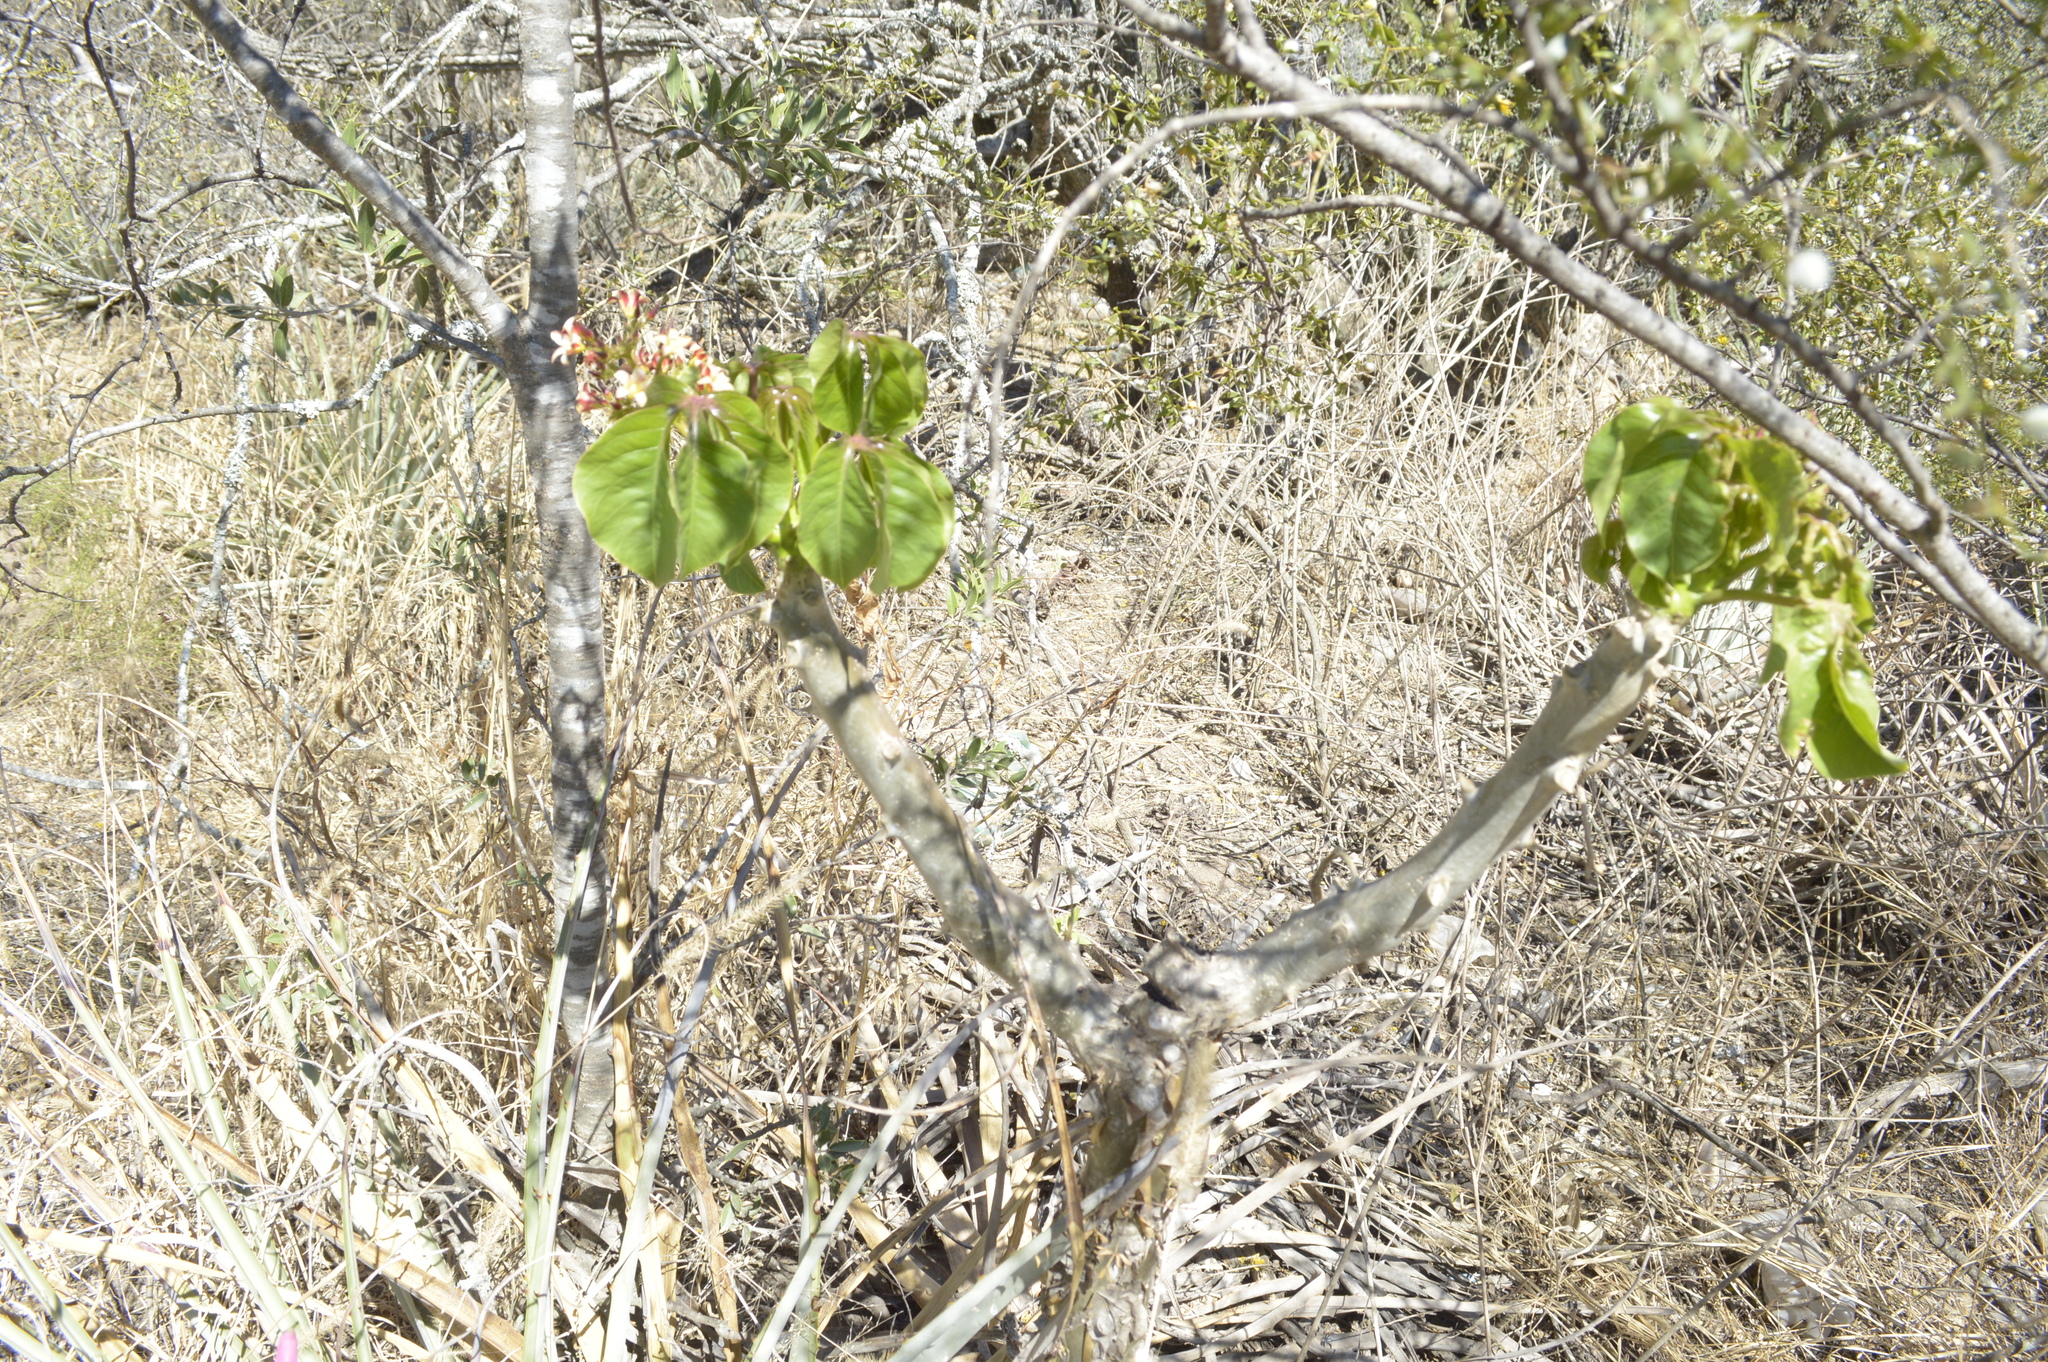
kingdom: Plantae
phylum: Tracheophyta
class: Magnoliopsida
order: Malpighiales
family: Euphorbiaceae
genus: Jatropha
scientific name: Jatropha macrocarpa
